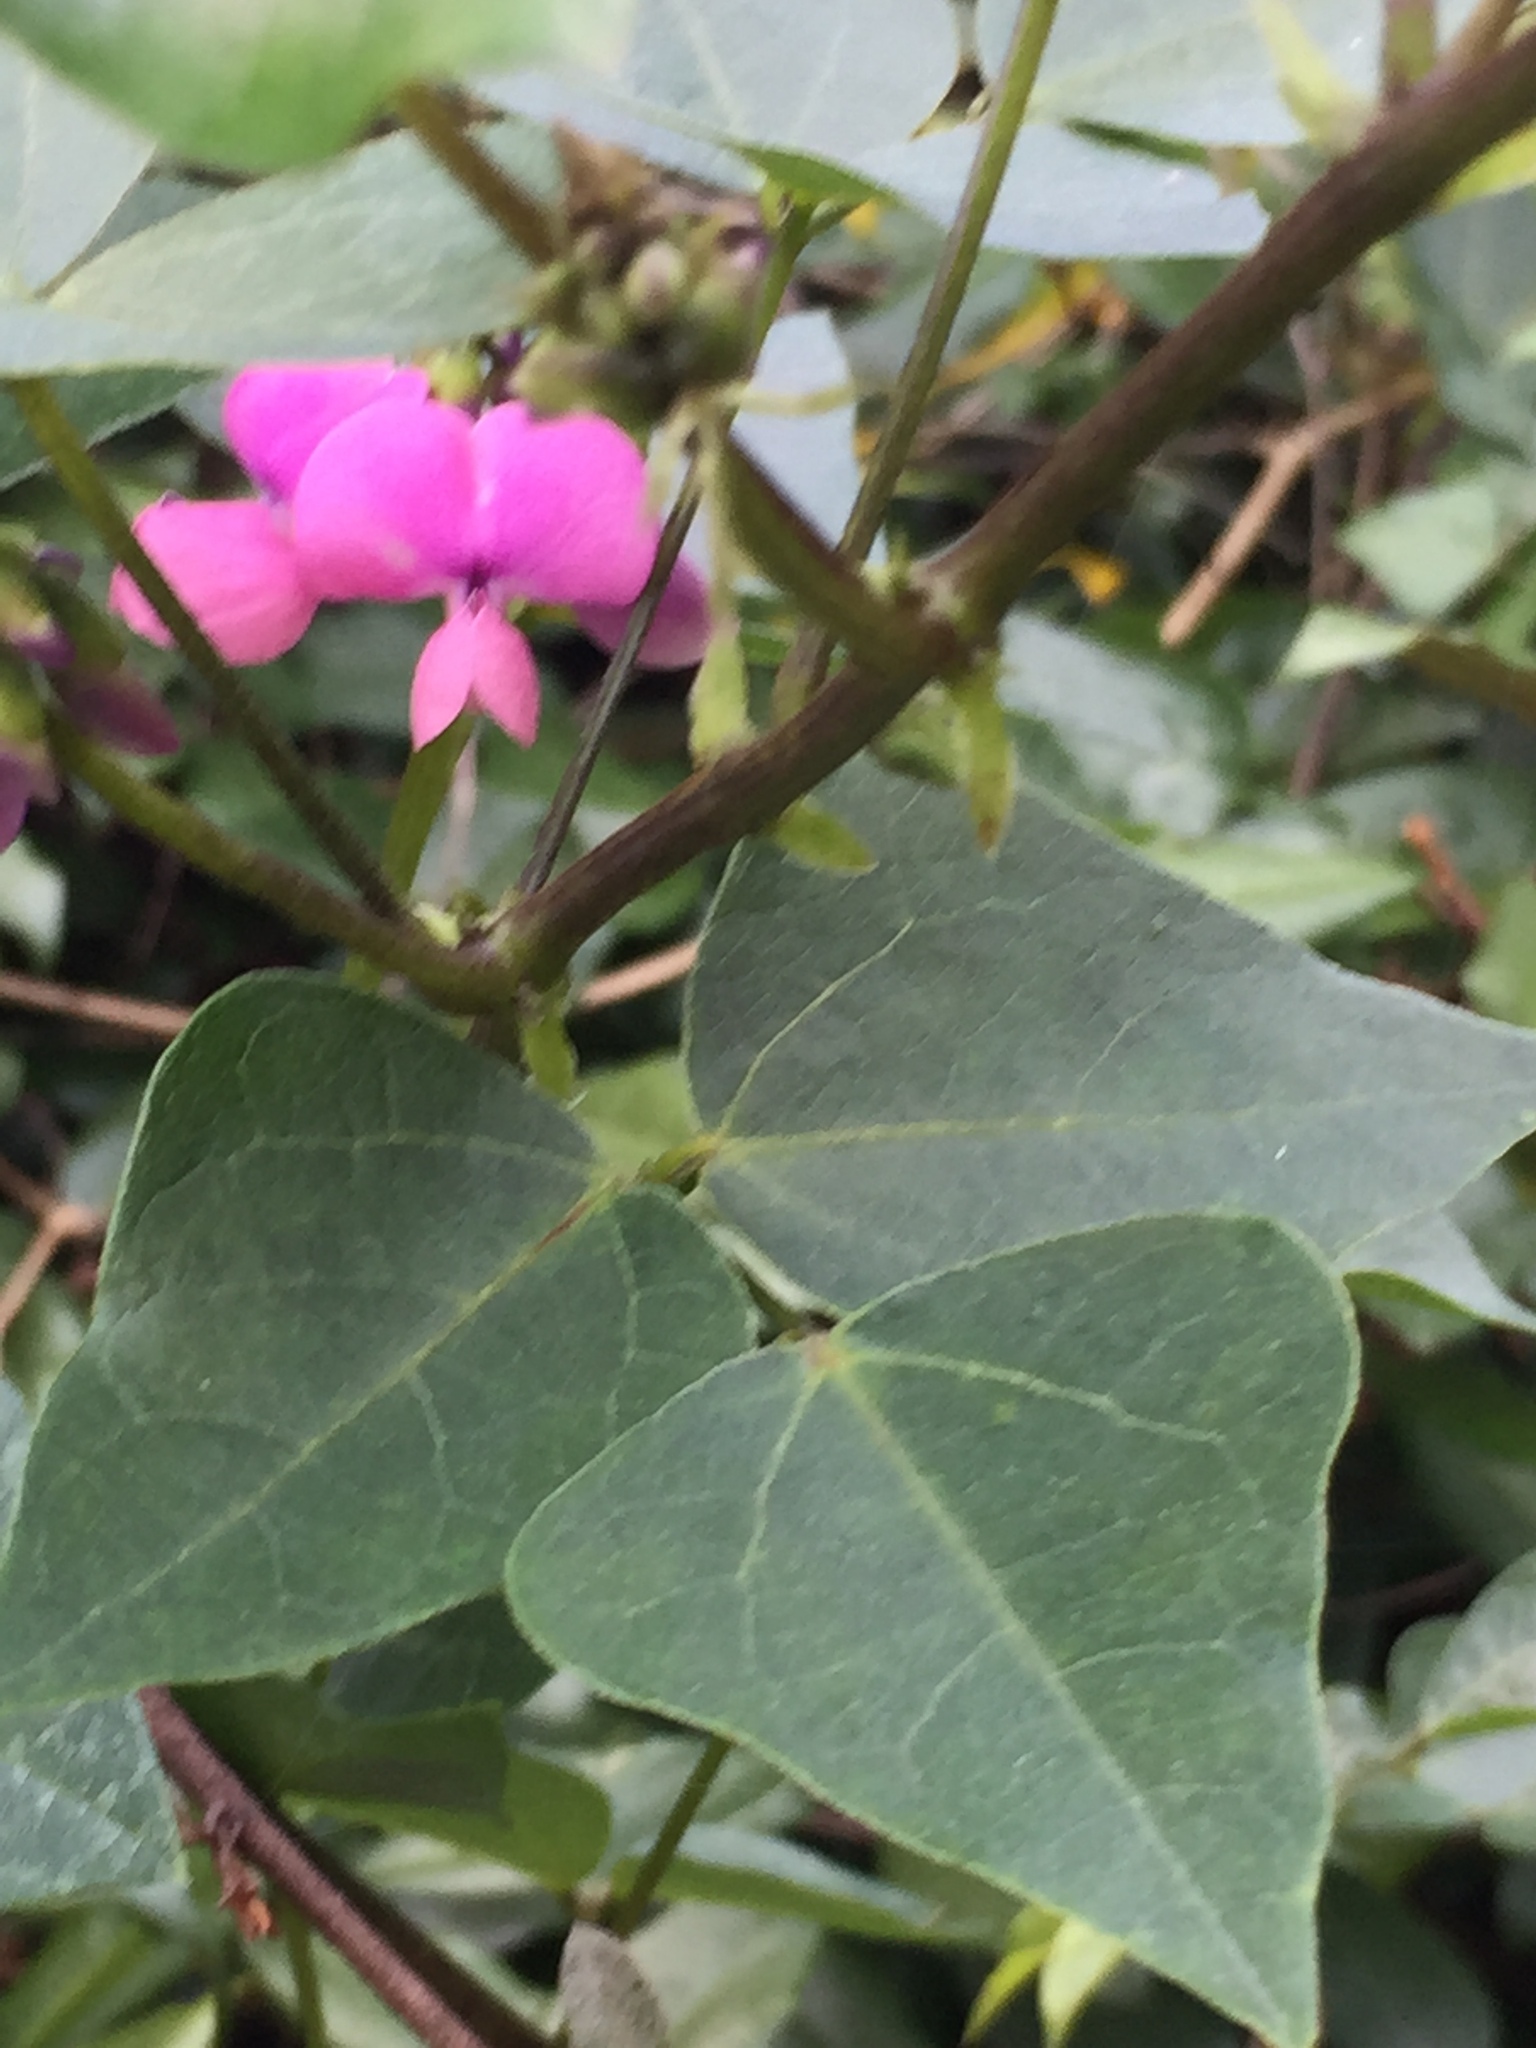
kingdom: Plantae
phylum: Tracheophyta
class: Magnoliopsida
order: Fabales
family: Fabaceae
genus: Dipogon
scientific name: Dipogon lignosus
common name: Okie bean
